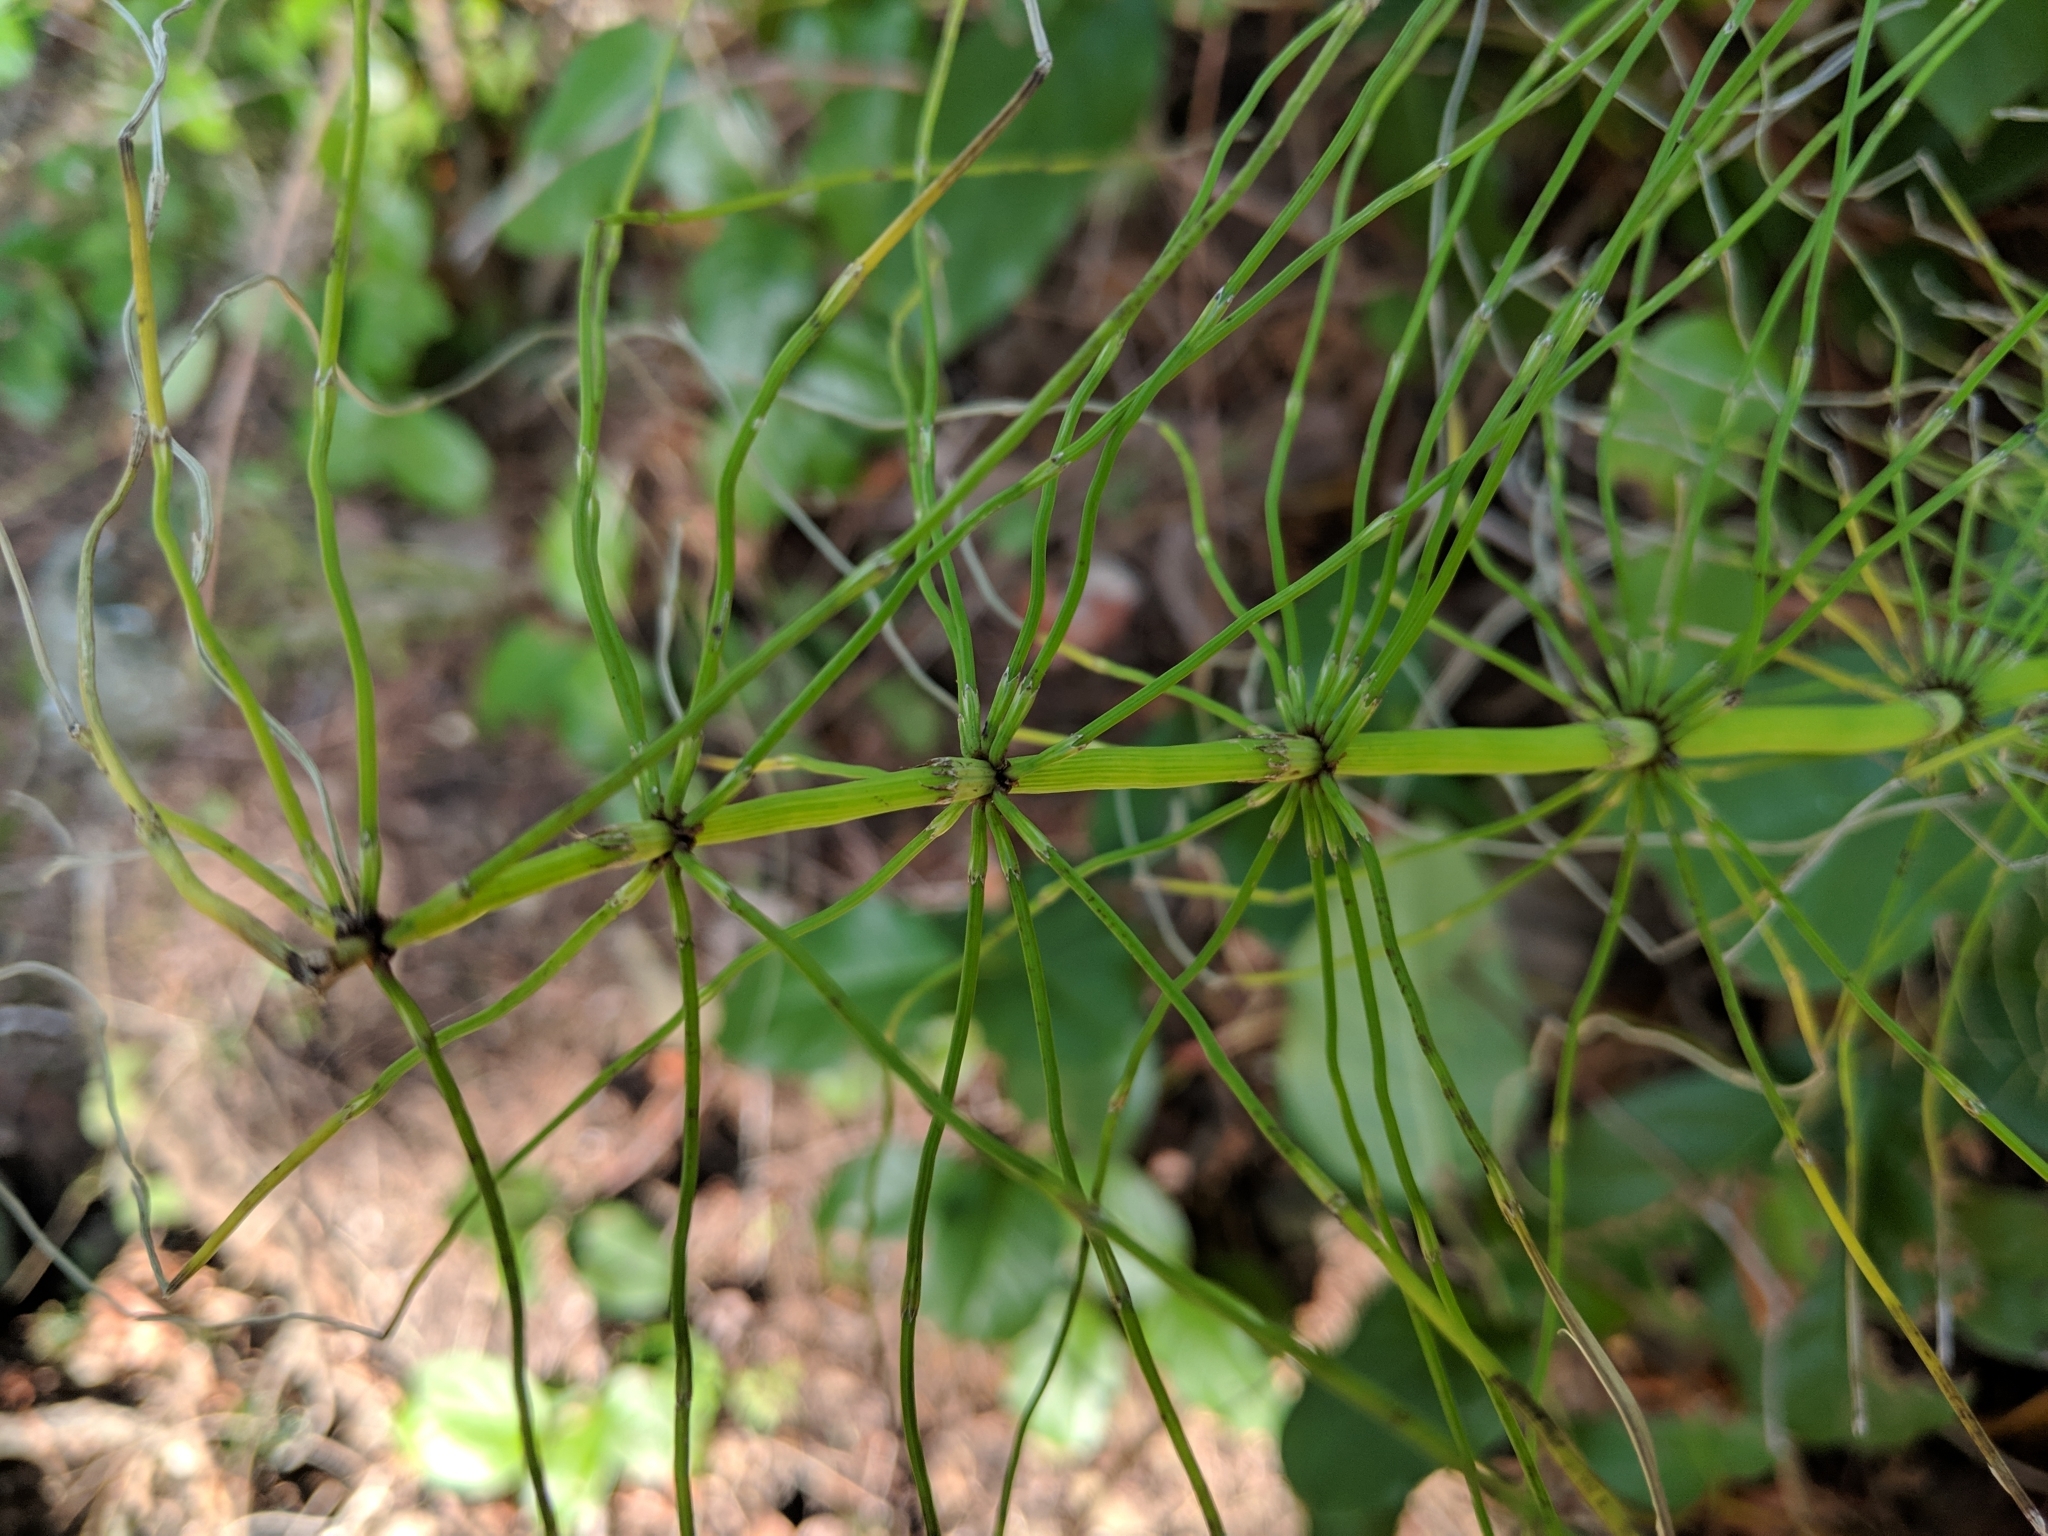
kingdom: Plantae
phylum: Tracheophyta
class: Polypodiopsida
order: Equisetales
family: Equisetaceae
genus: Equisetum
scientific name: Equisetum arvense
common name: Field horsetail
